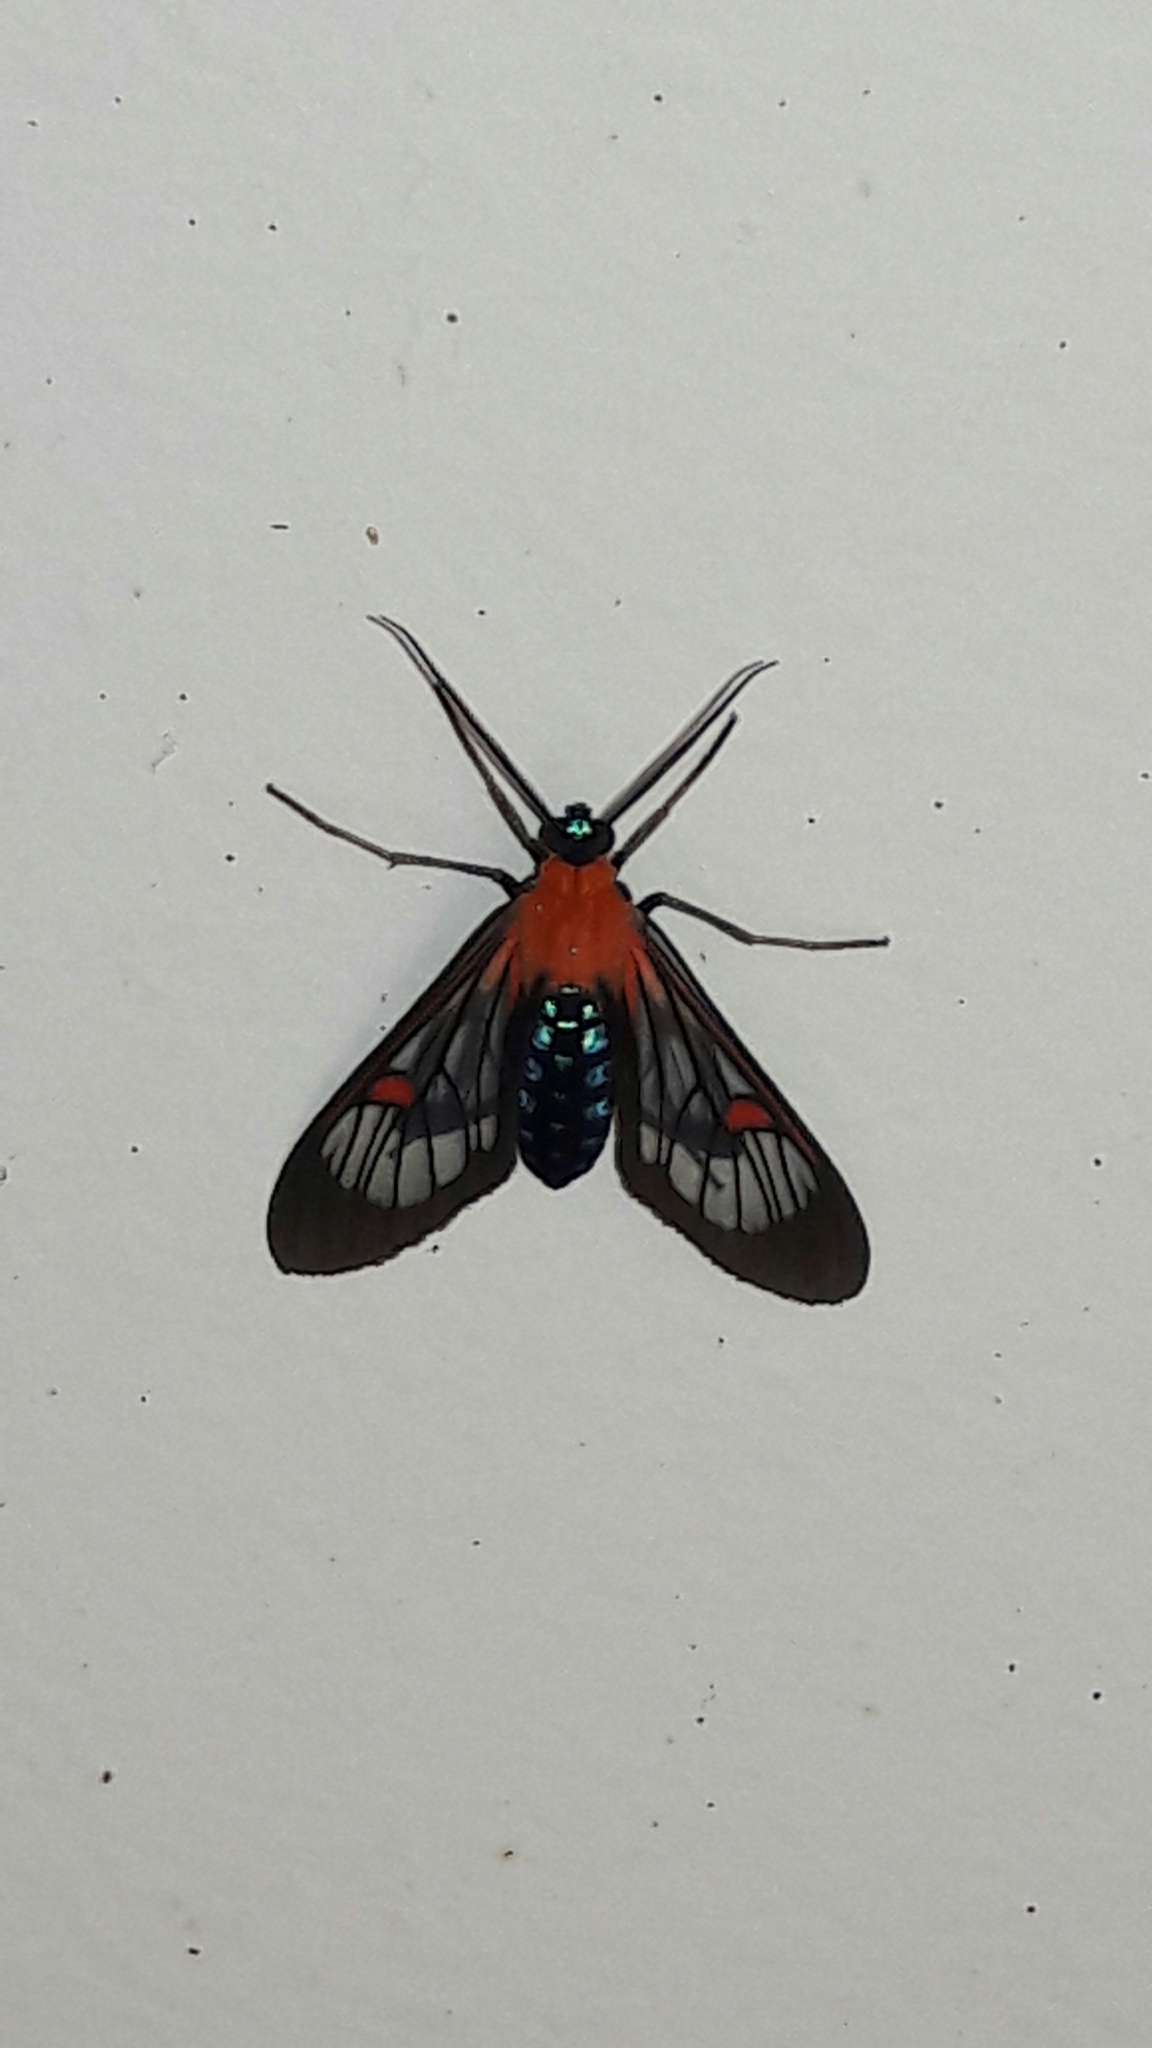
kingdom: Animalia
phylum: Arthropoda
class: Insecta
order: Lepidoptera
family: Erebidae
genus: Lepidoneiva
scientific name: Lepidoneiva teuthras
